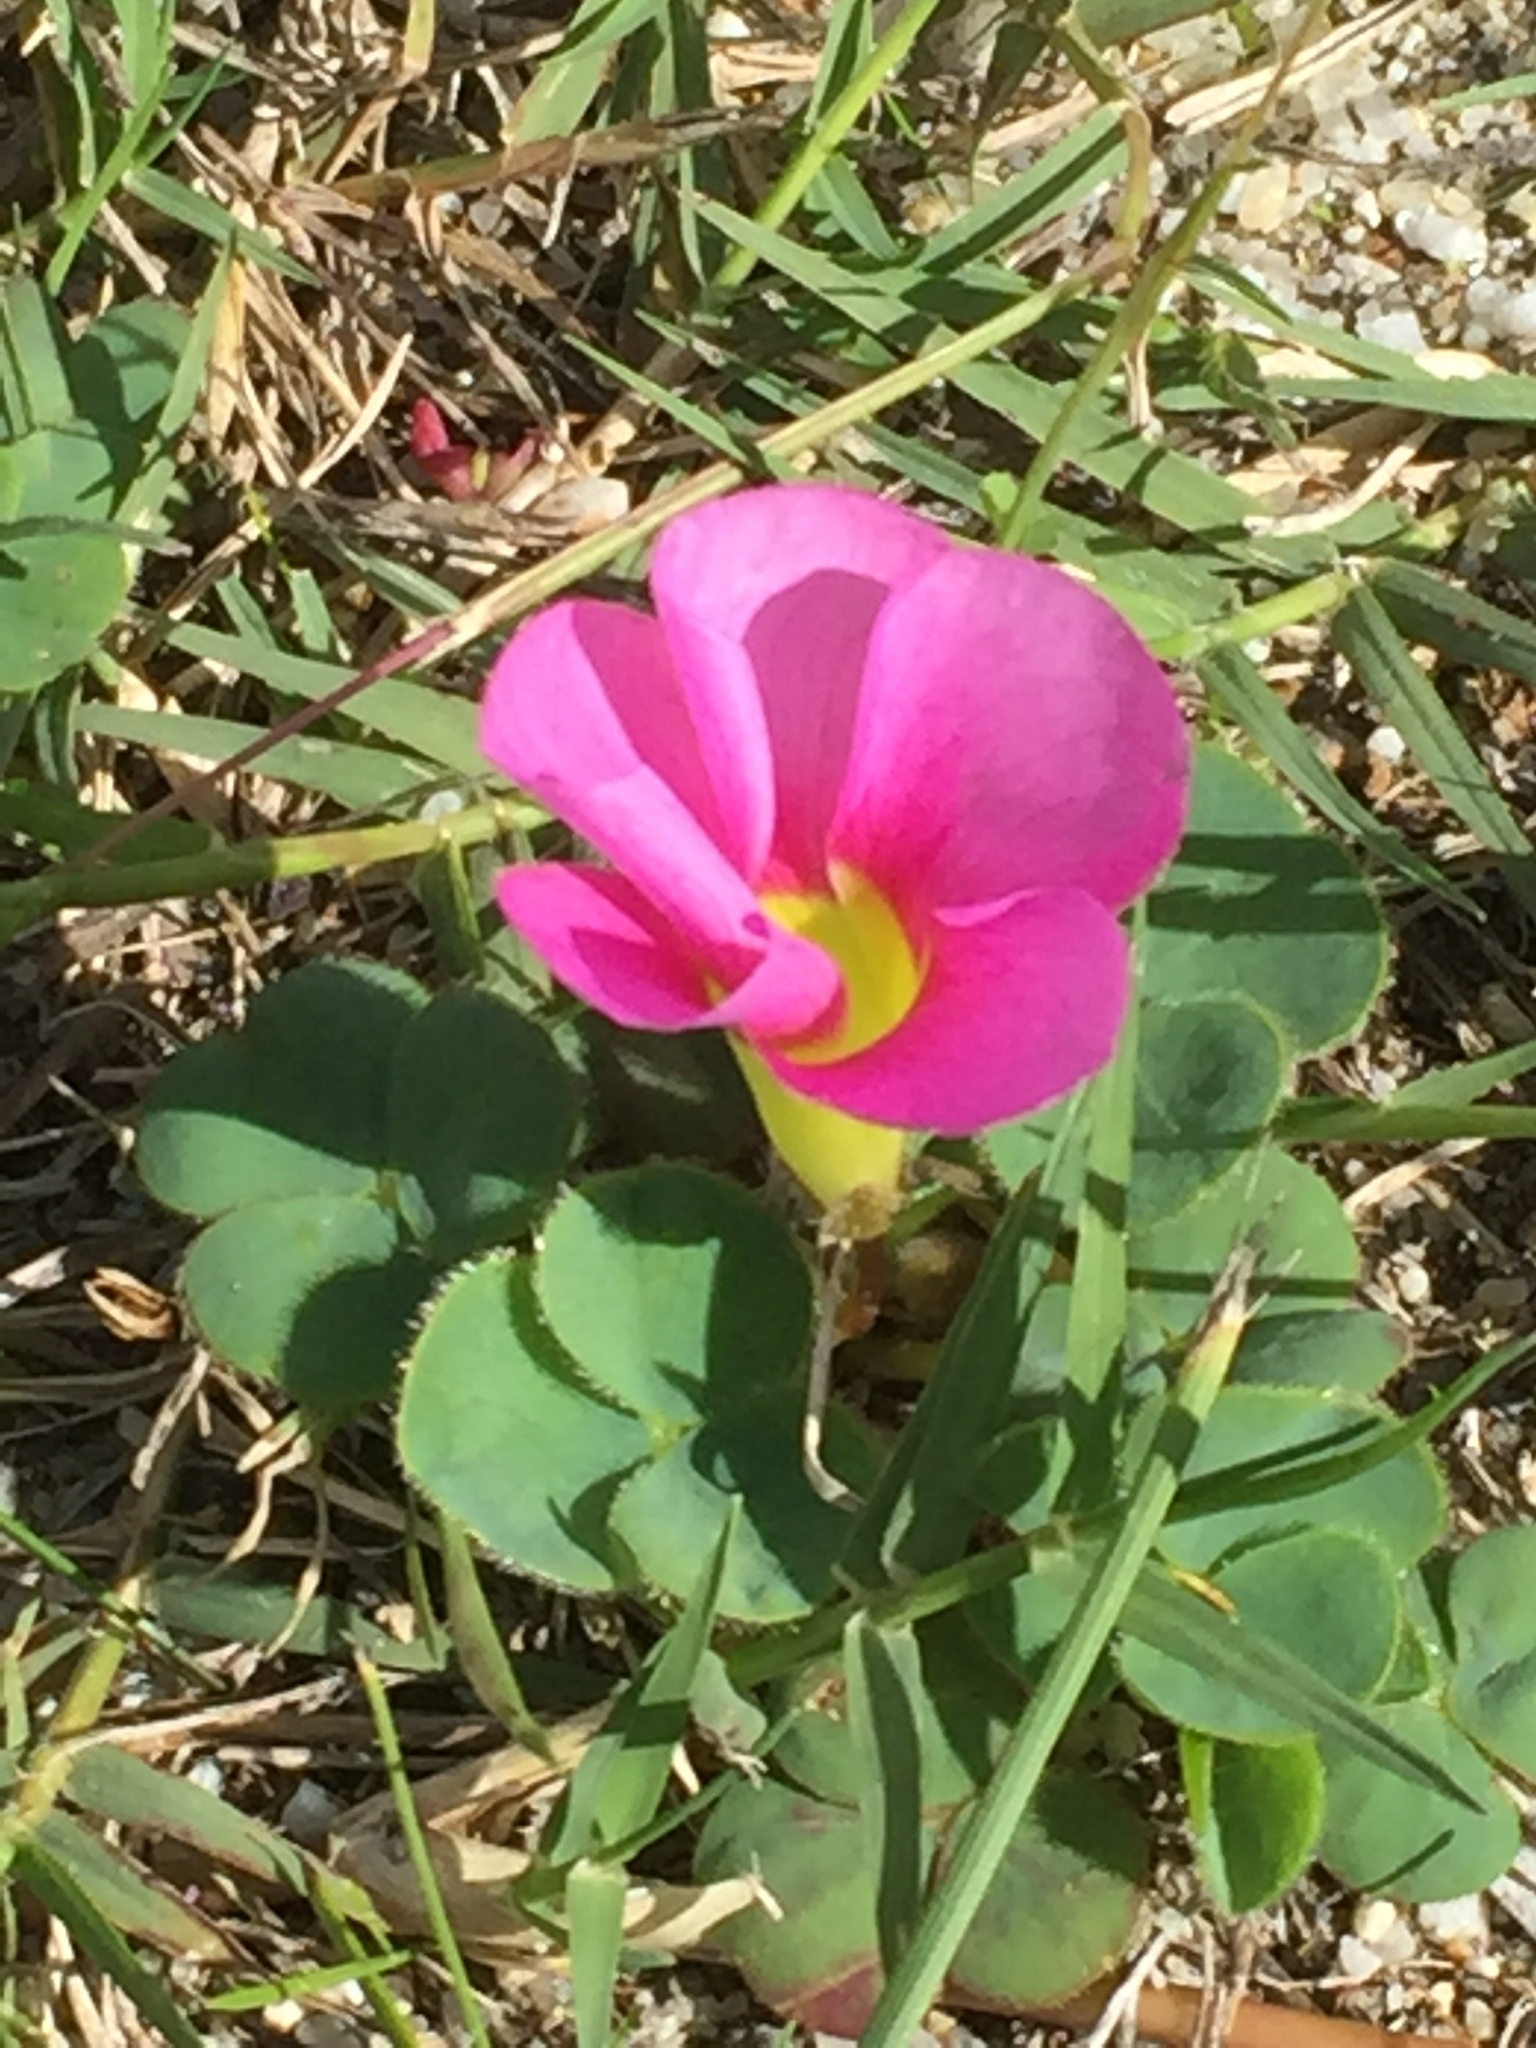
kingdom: Plantae
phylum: Tracheophyta
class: Magnoliopsida
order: Oxalidales
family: Oxalidaceae
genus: Oxalis
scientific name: Oxalis purpurea
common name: Purple woodsorrel
